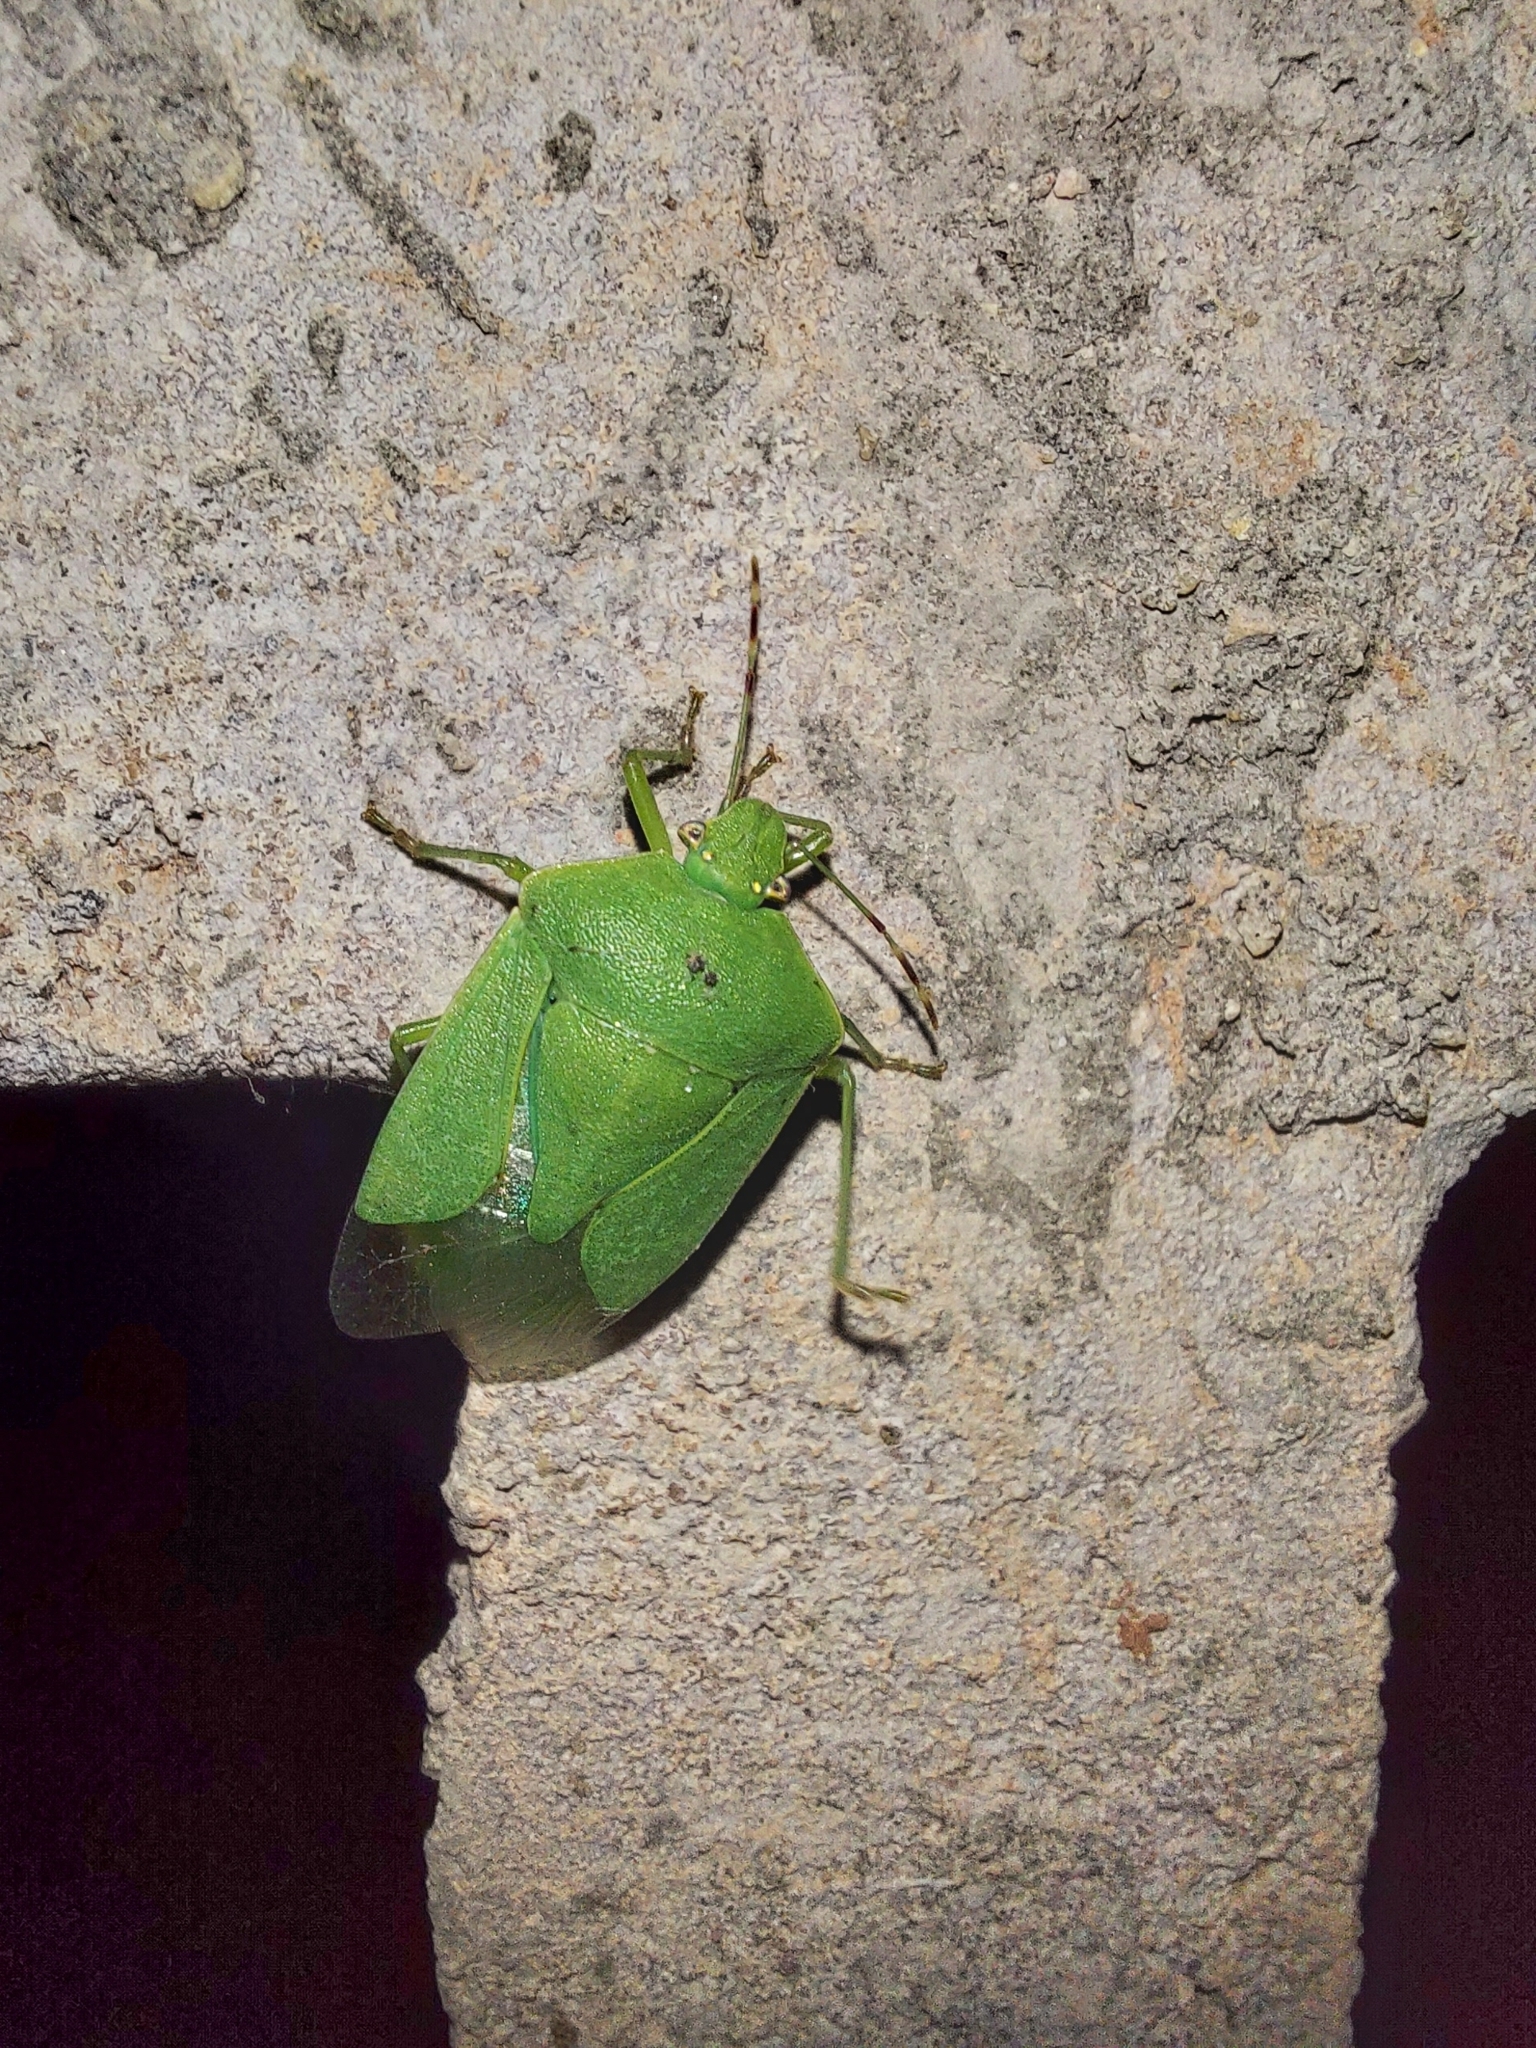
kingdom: Animalia
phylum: Arthropoda
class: Insecta
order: Hemiptera
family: Pentatomidae
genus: Nezara
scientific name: Nezara viridula
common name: Southern green stink bug
